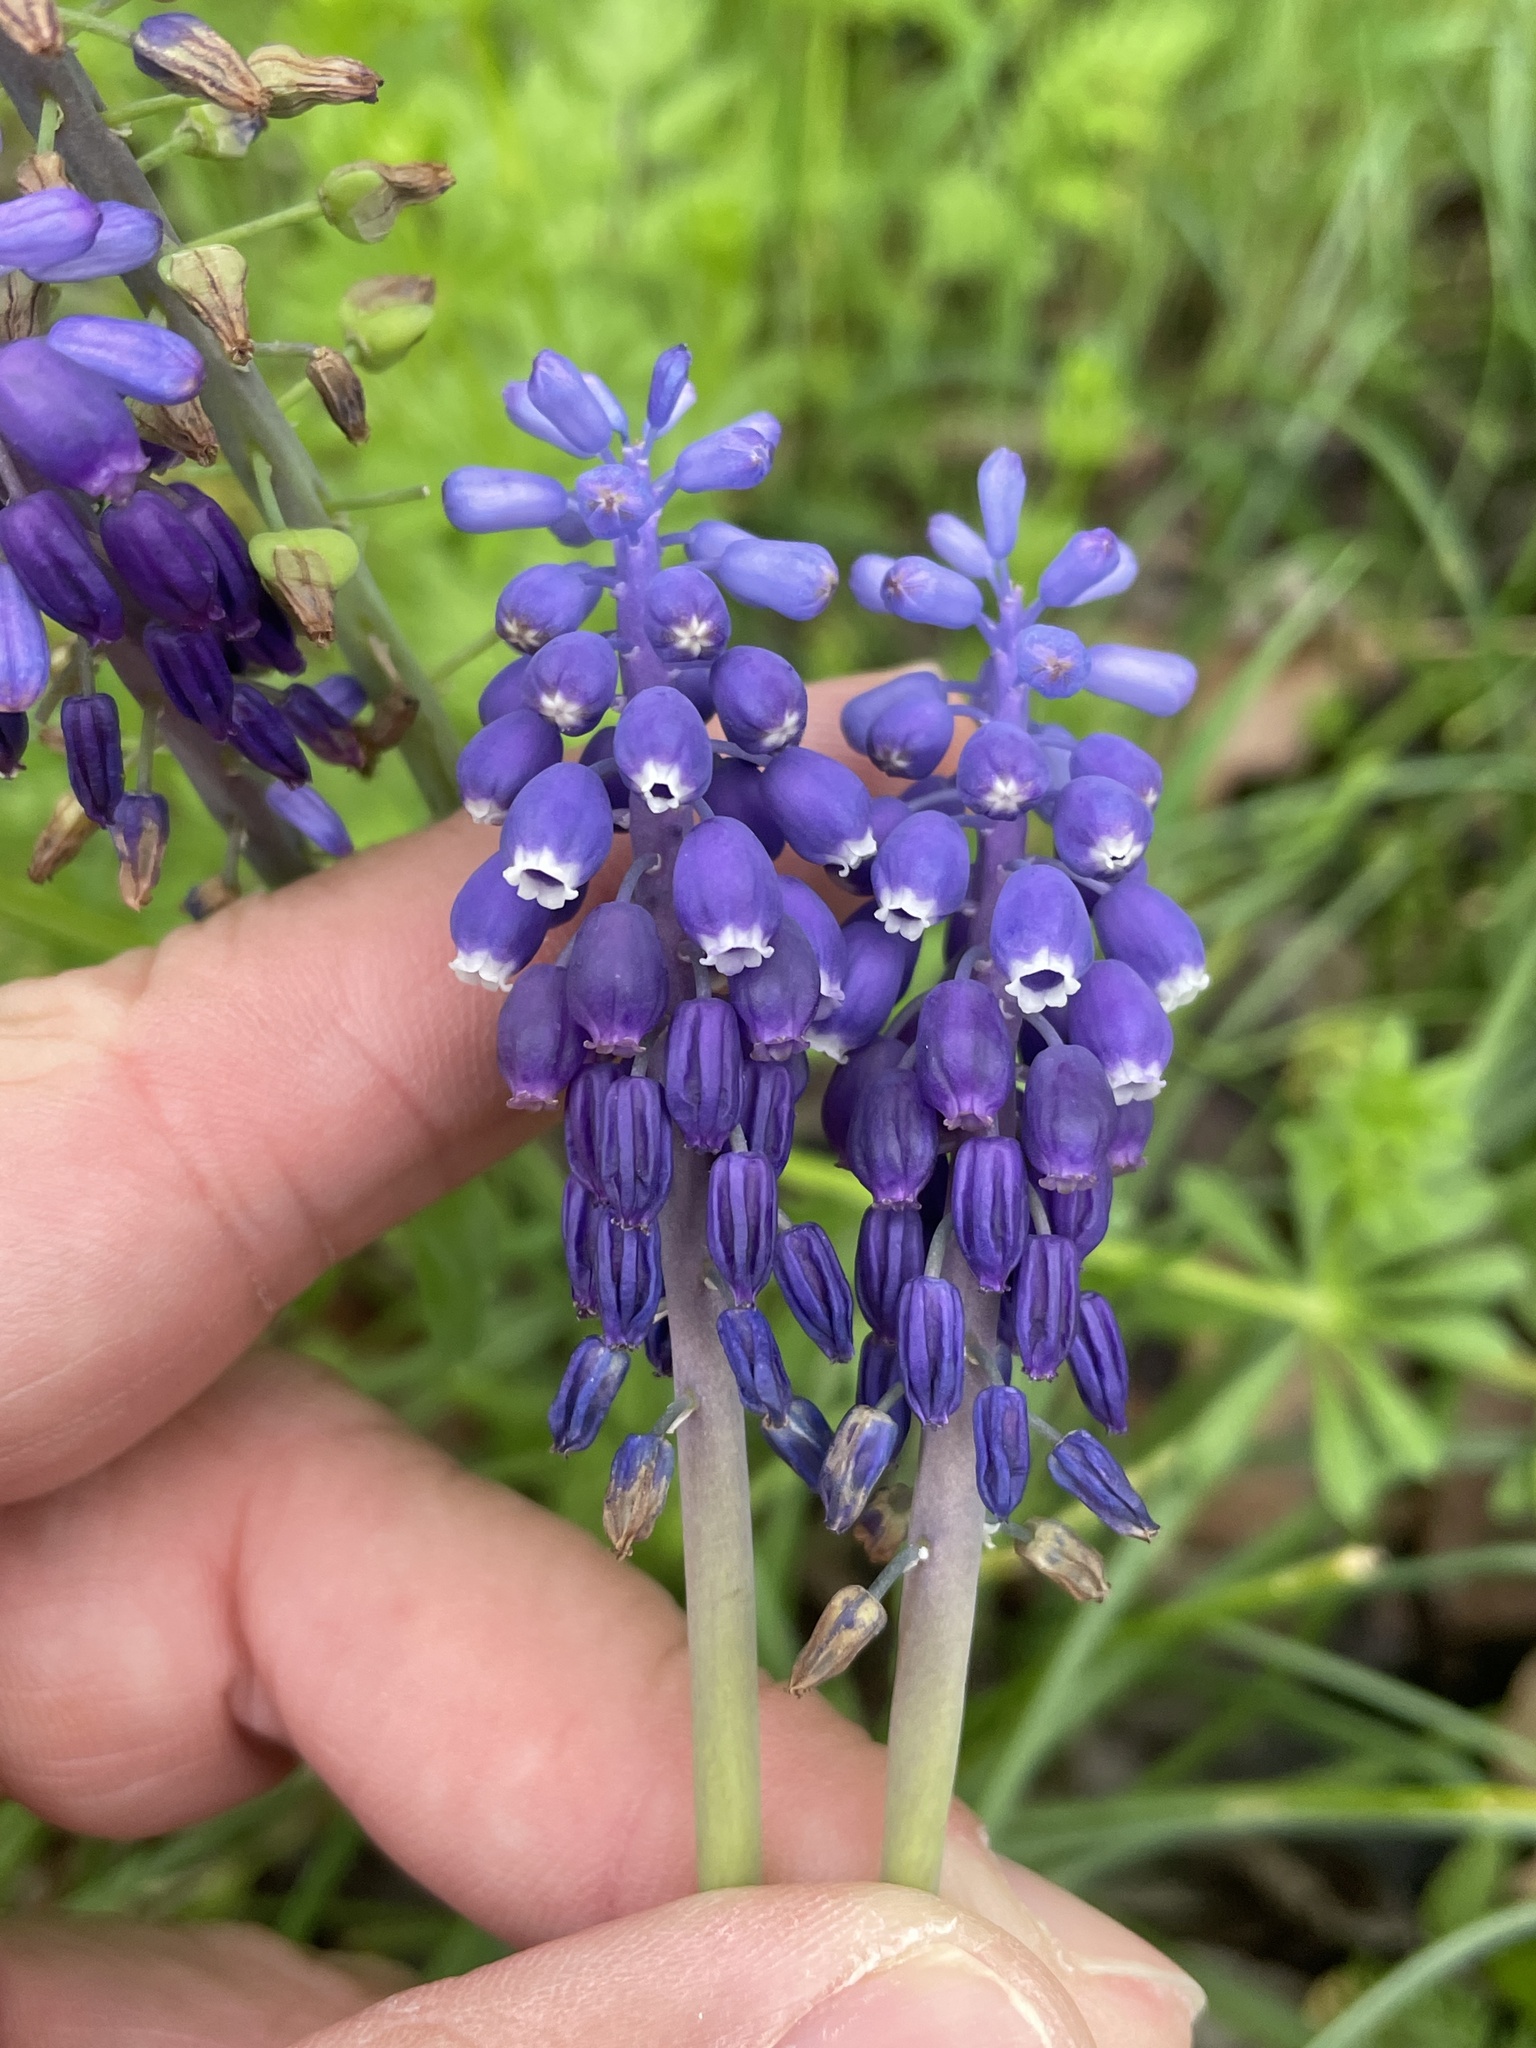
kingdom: Plantae
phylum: Tracheophyta
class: Liliopsida
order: Asparagales
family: Asparagaceae
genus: Muscari
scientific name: Muscari neglectum
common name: Grape-hyacinth
